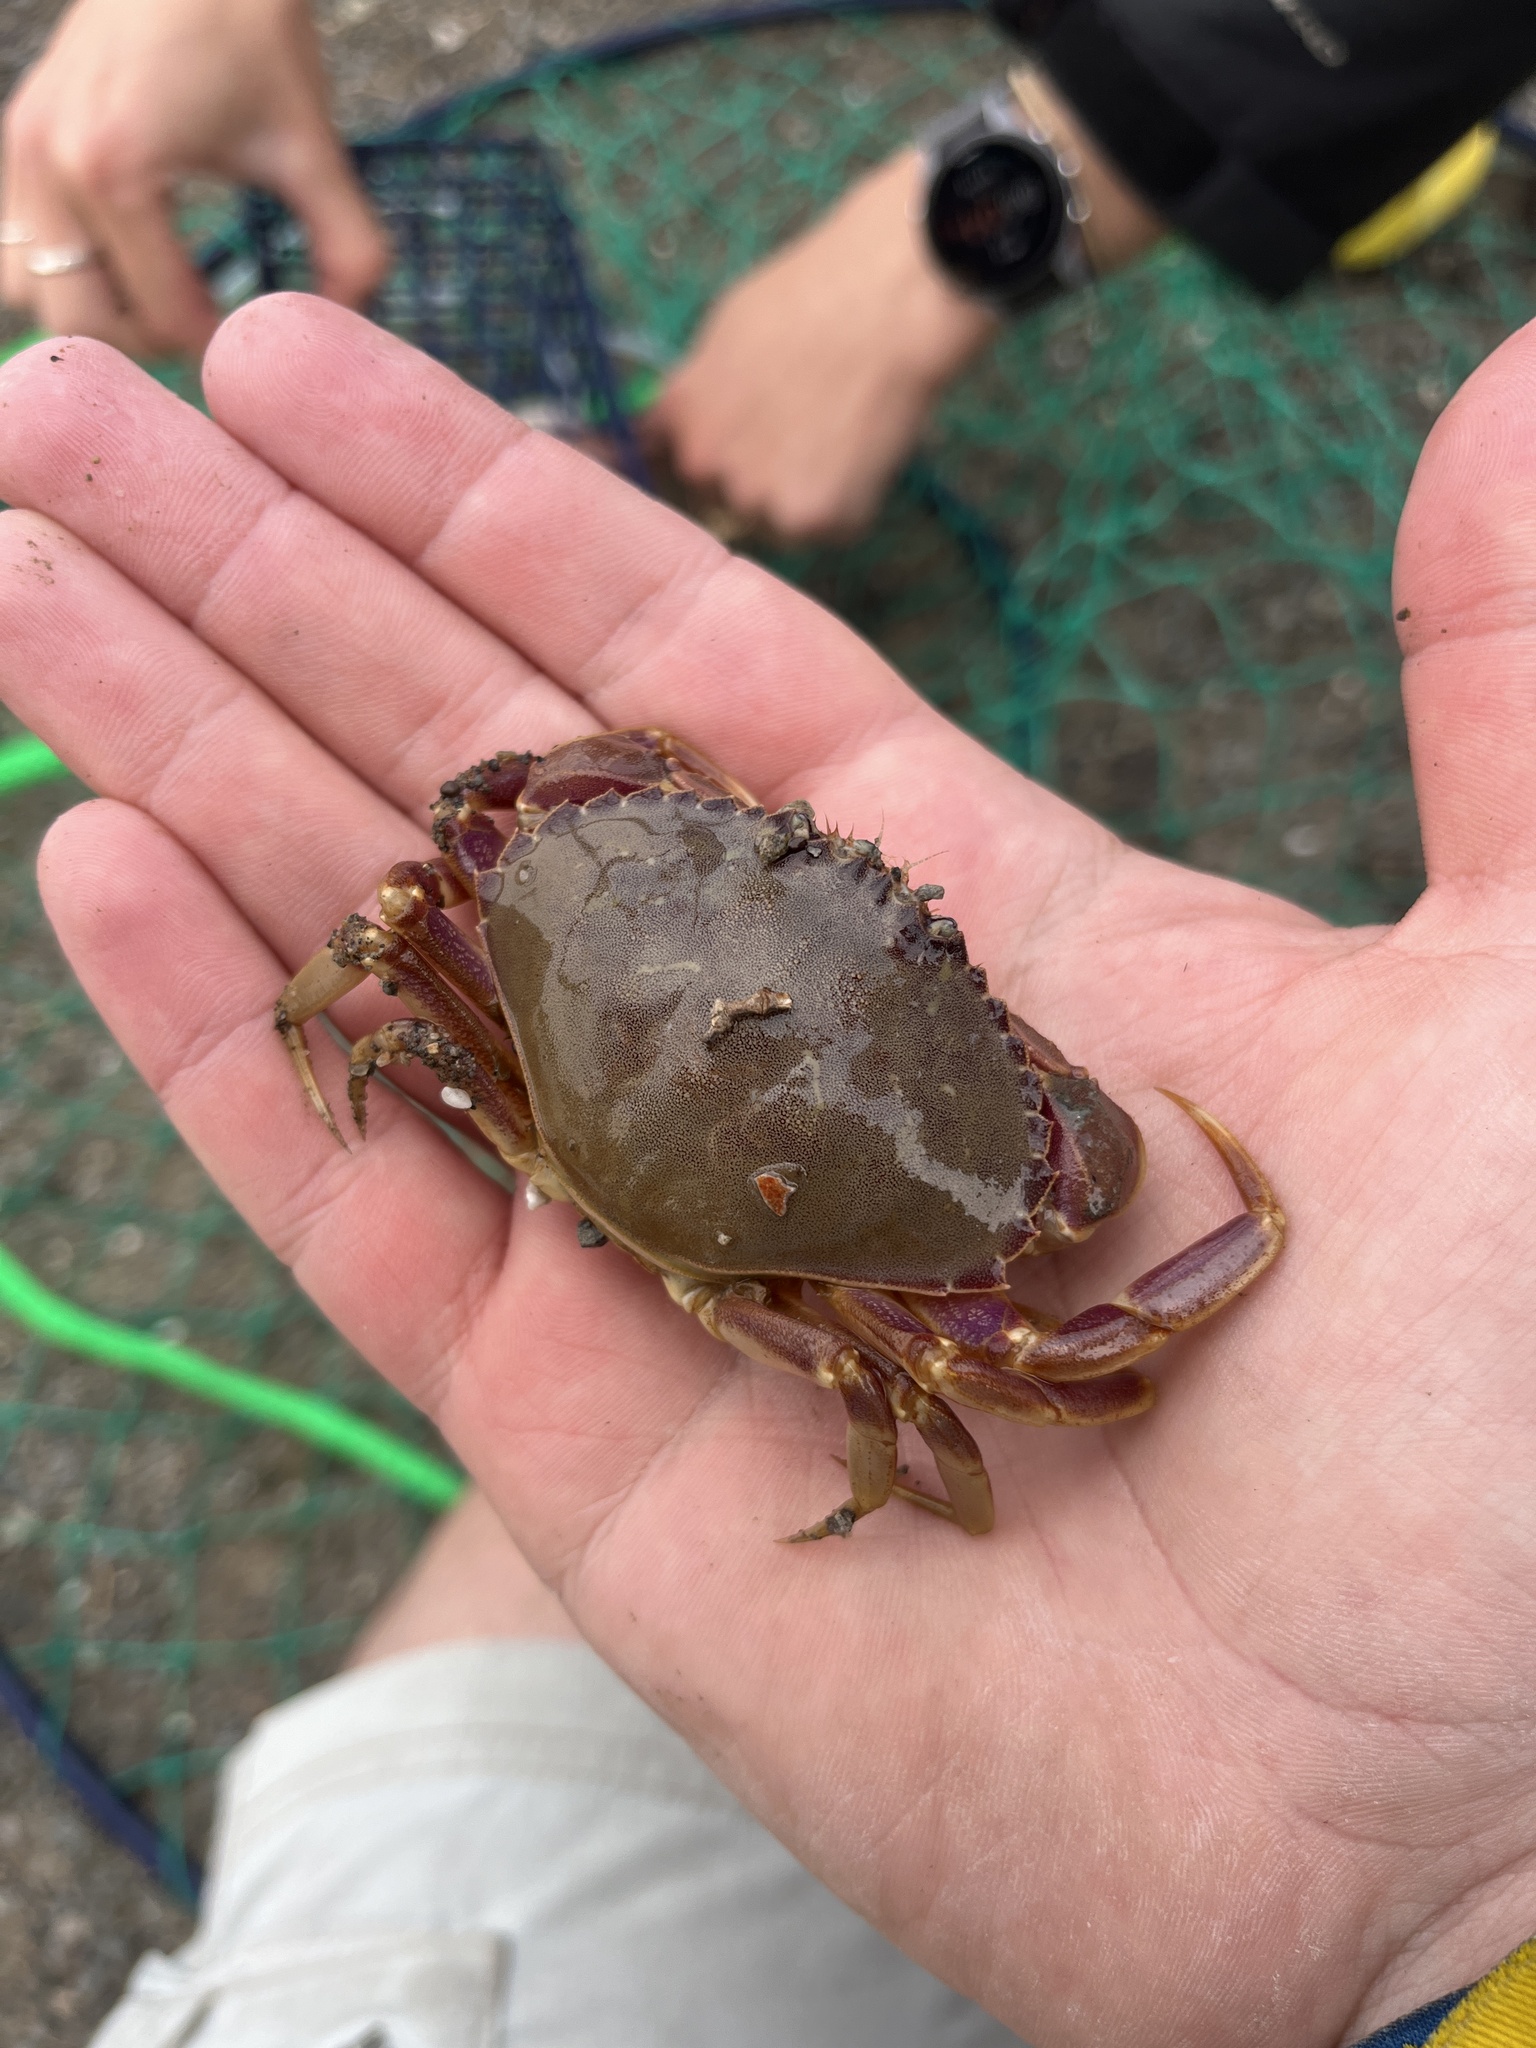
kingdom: Animalia
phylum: Arthropoda
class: Malacostraca
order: Decapoda
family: Cancridae
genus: Metacarcinus
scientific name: Metacarcinus gracilis
